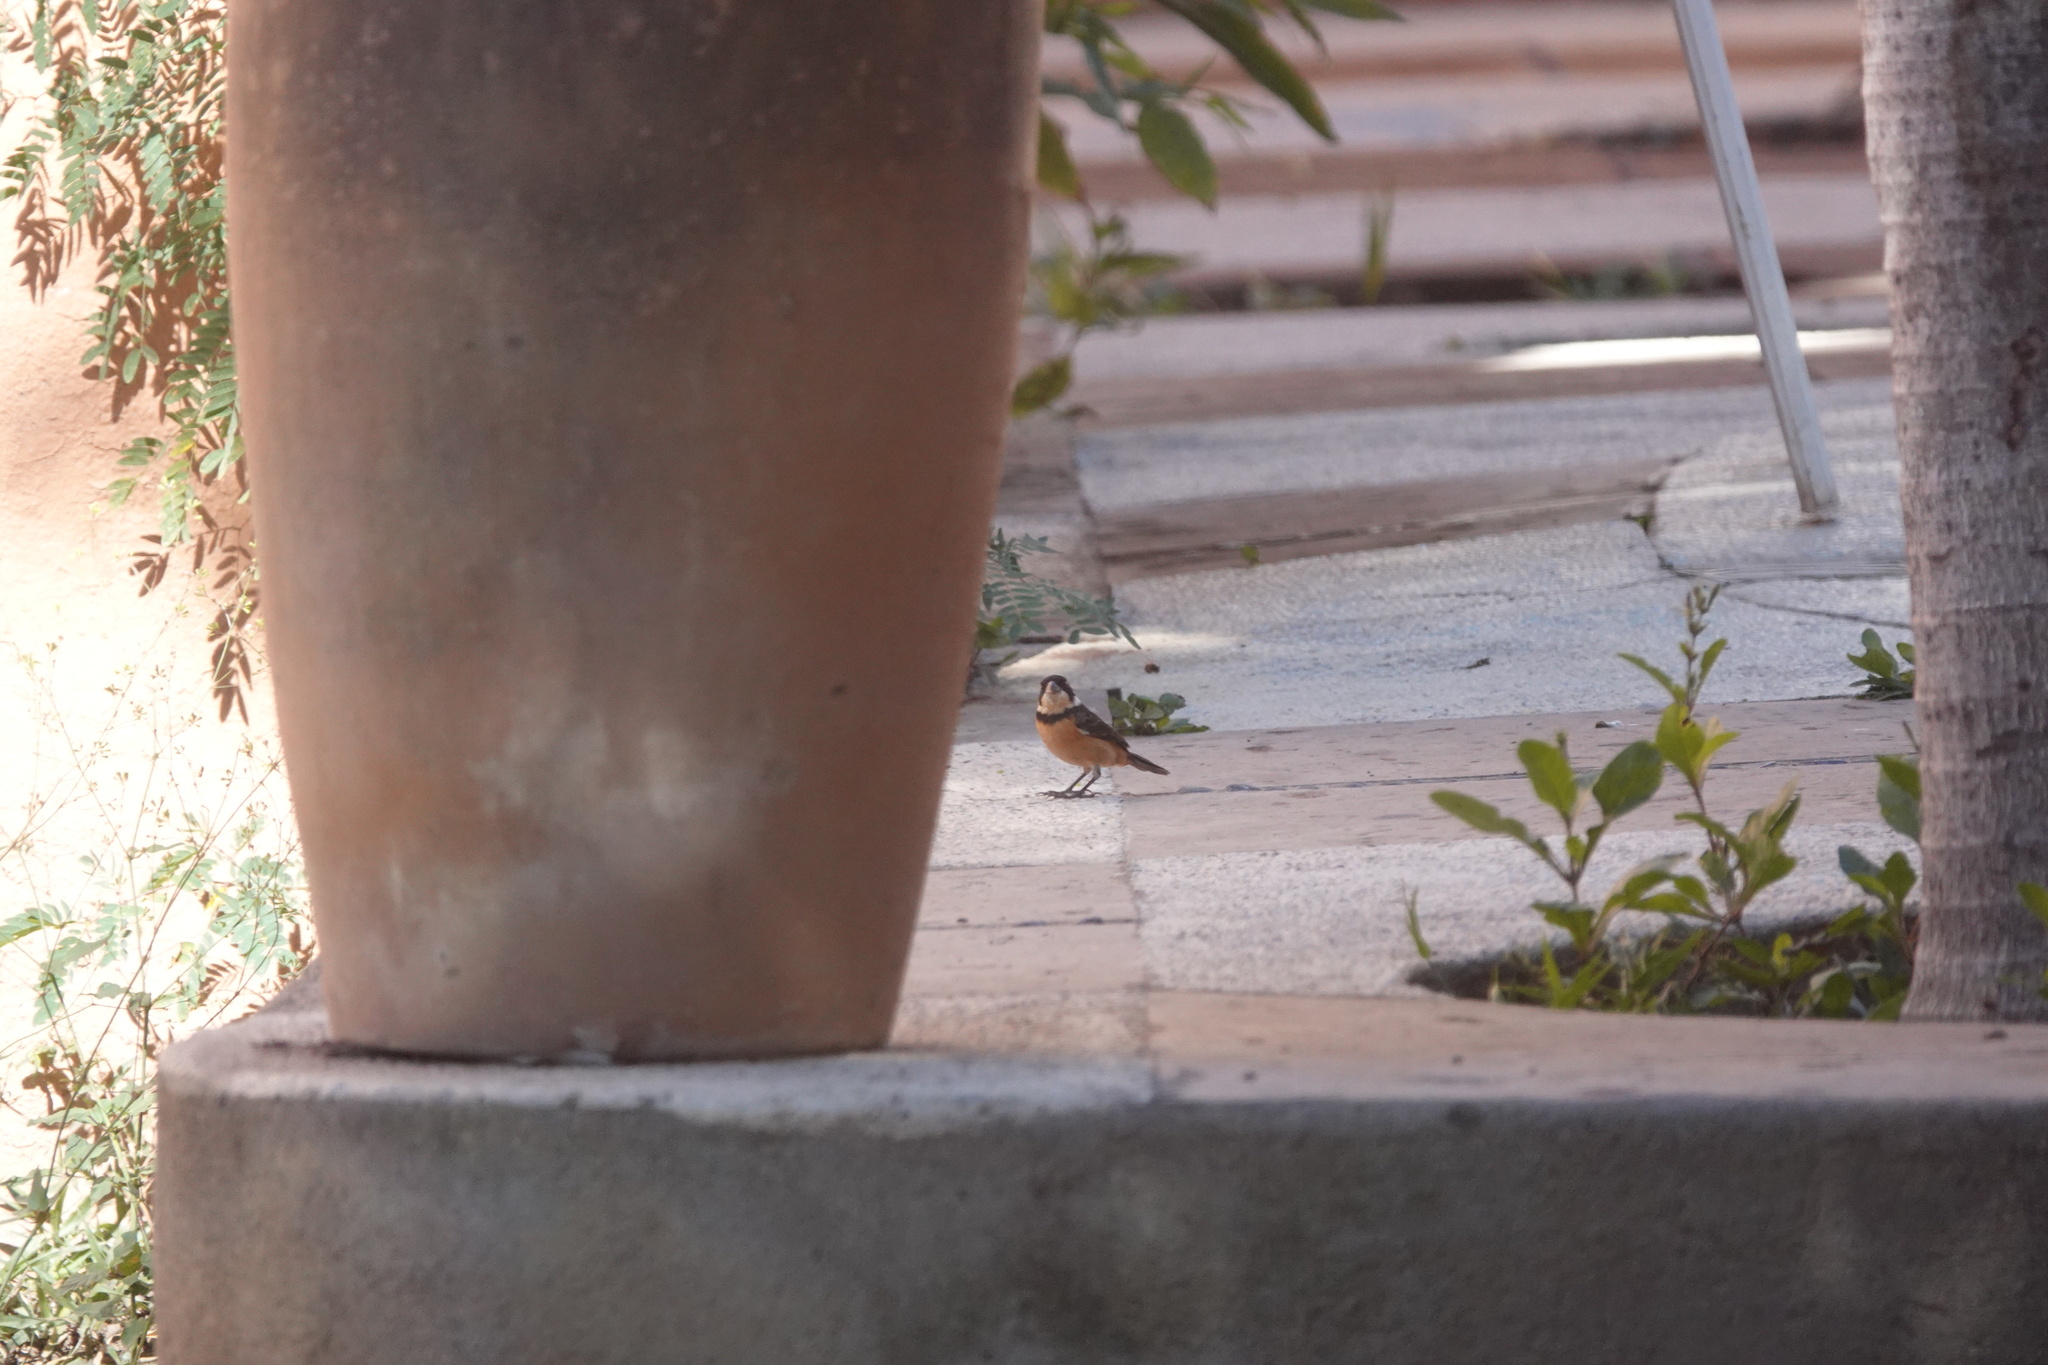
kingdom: Animalia
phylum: Chordata
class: Aves
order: Passeriformes
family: Thraupidae
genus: Sporophila
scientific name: Sporophila torqueola
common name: White-collared seedeater
